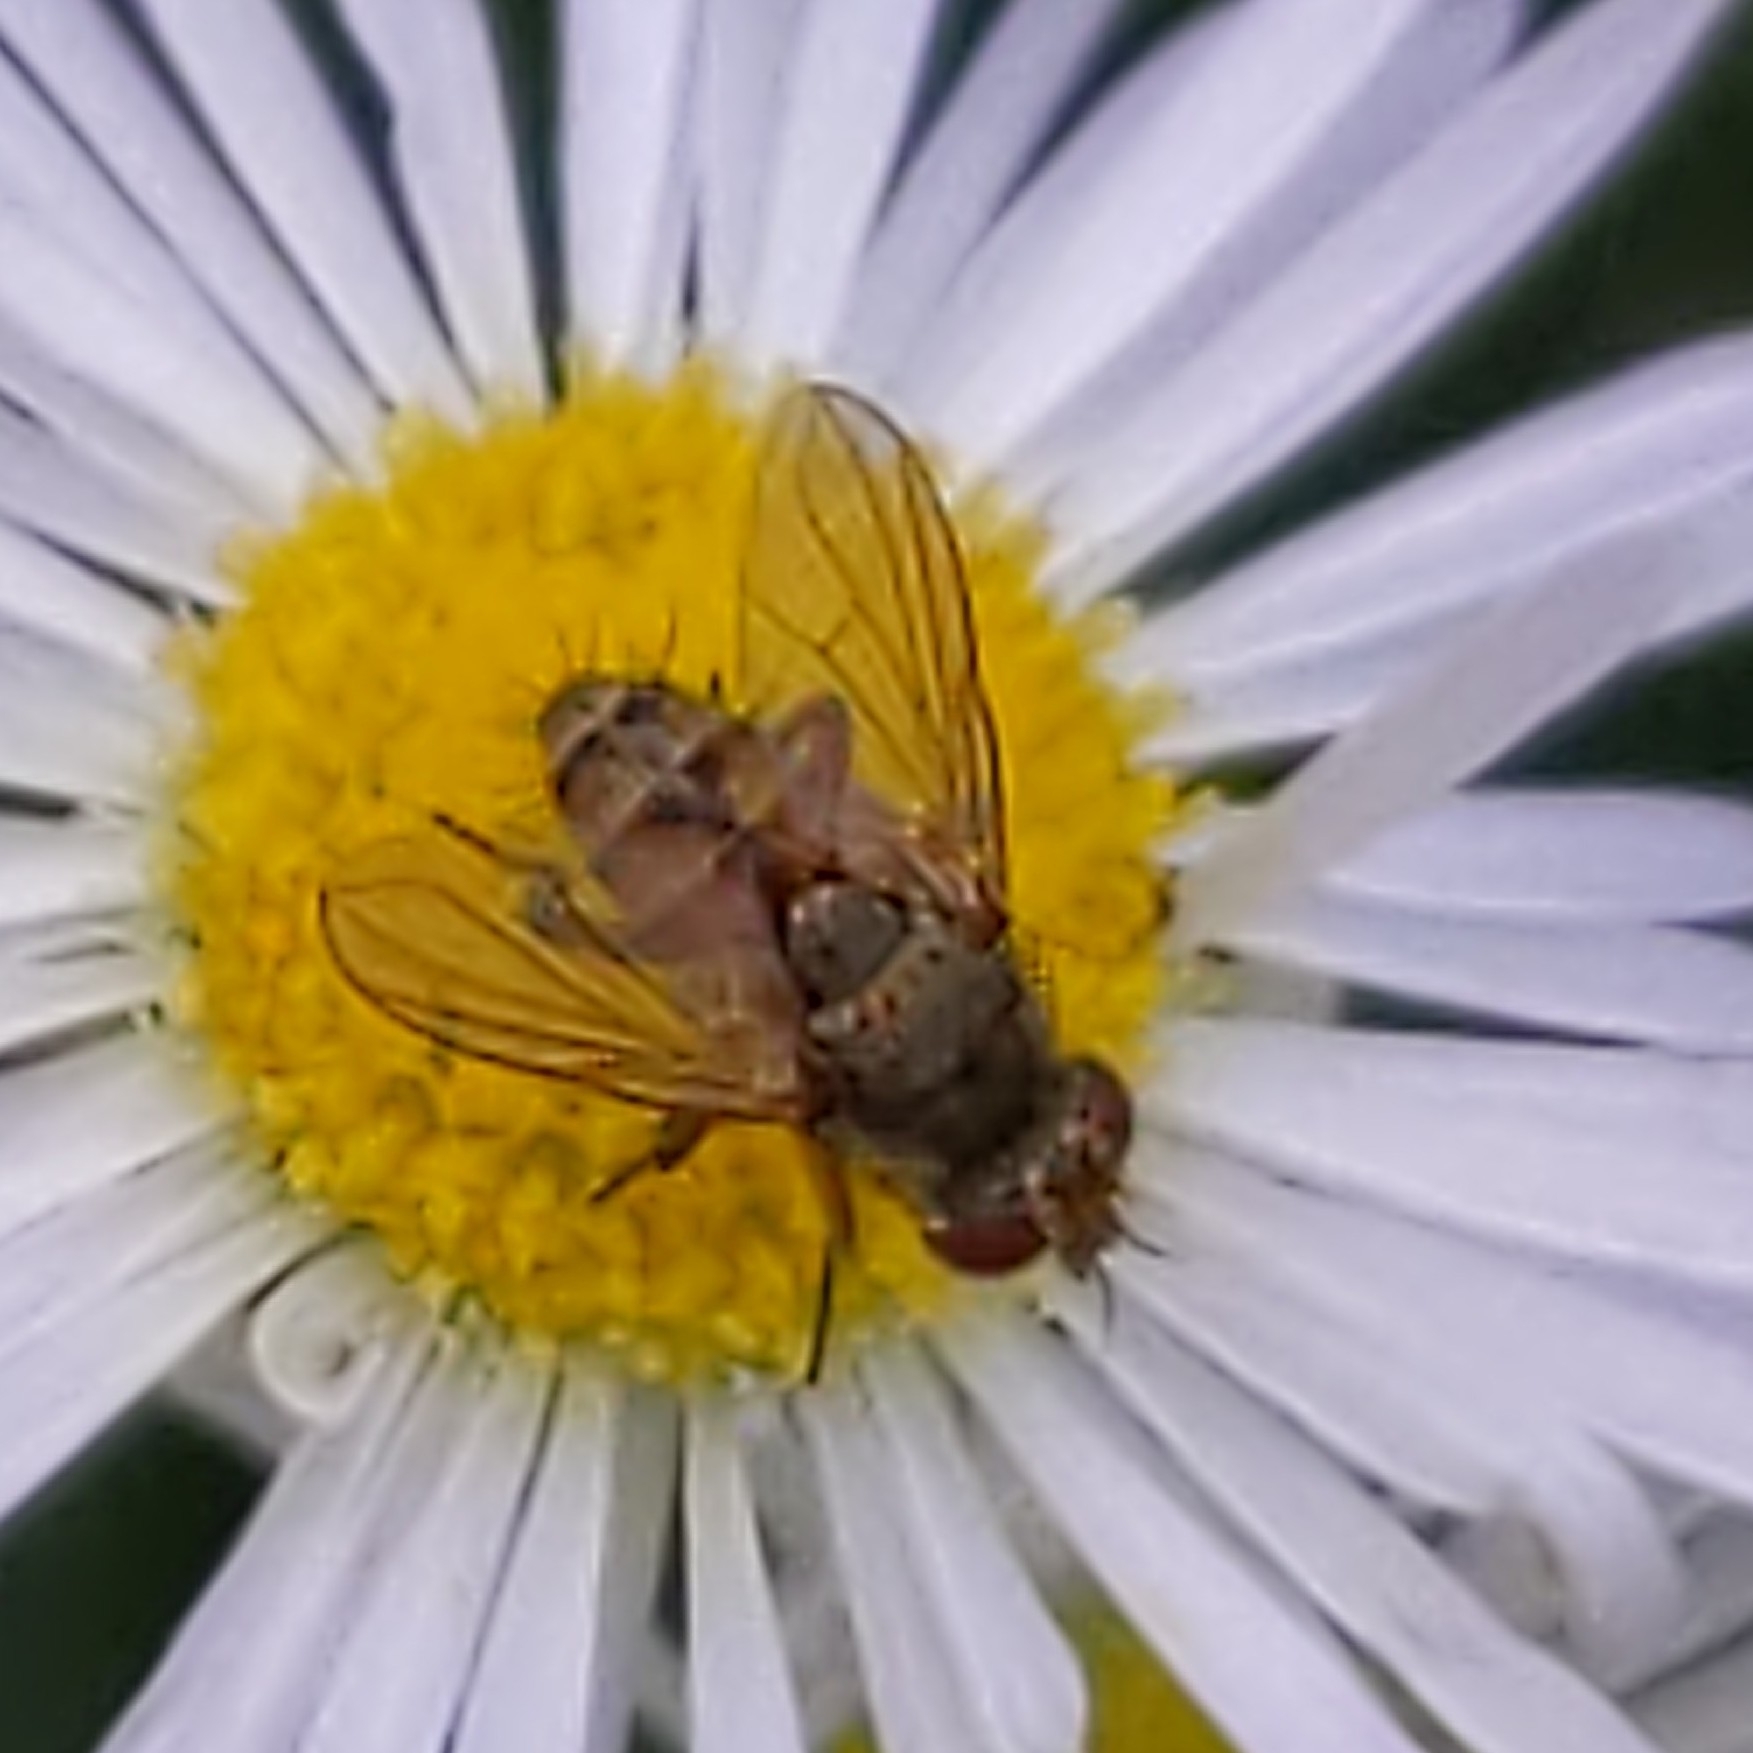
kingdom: Animalia
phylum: Arthropoda
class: Insecta
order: Diptera
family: Tachinidae
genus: Siphona
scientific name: Siphona
